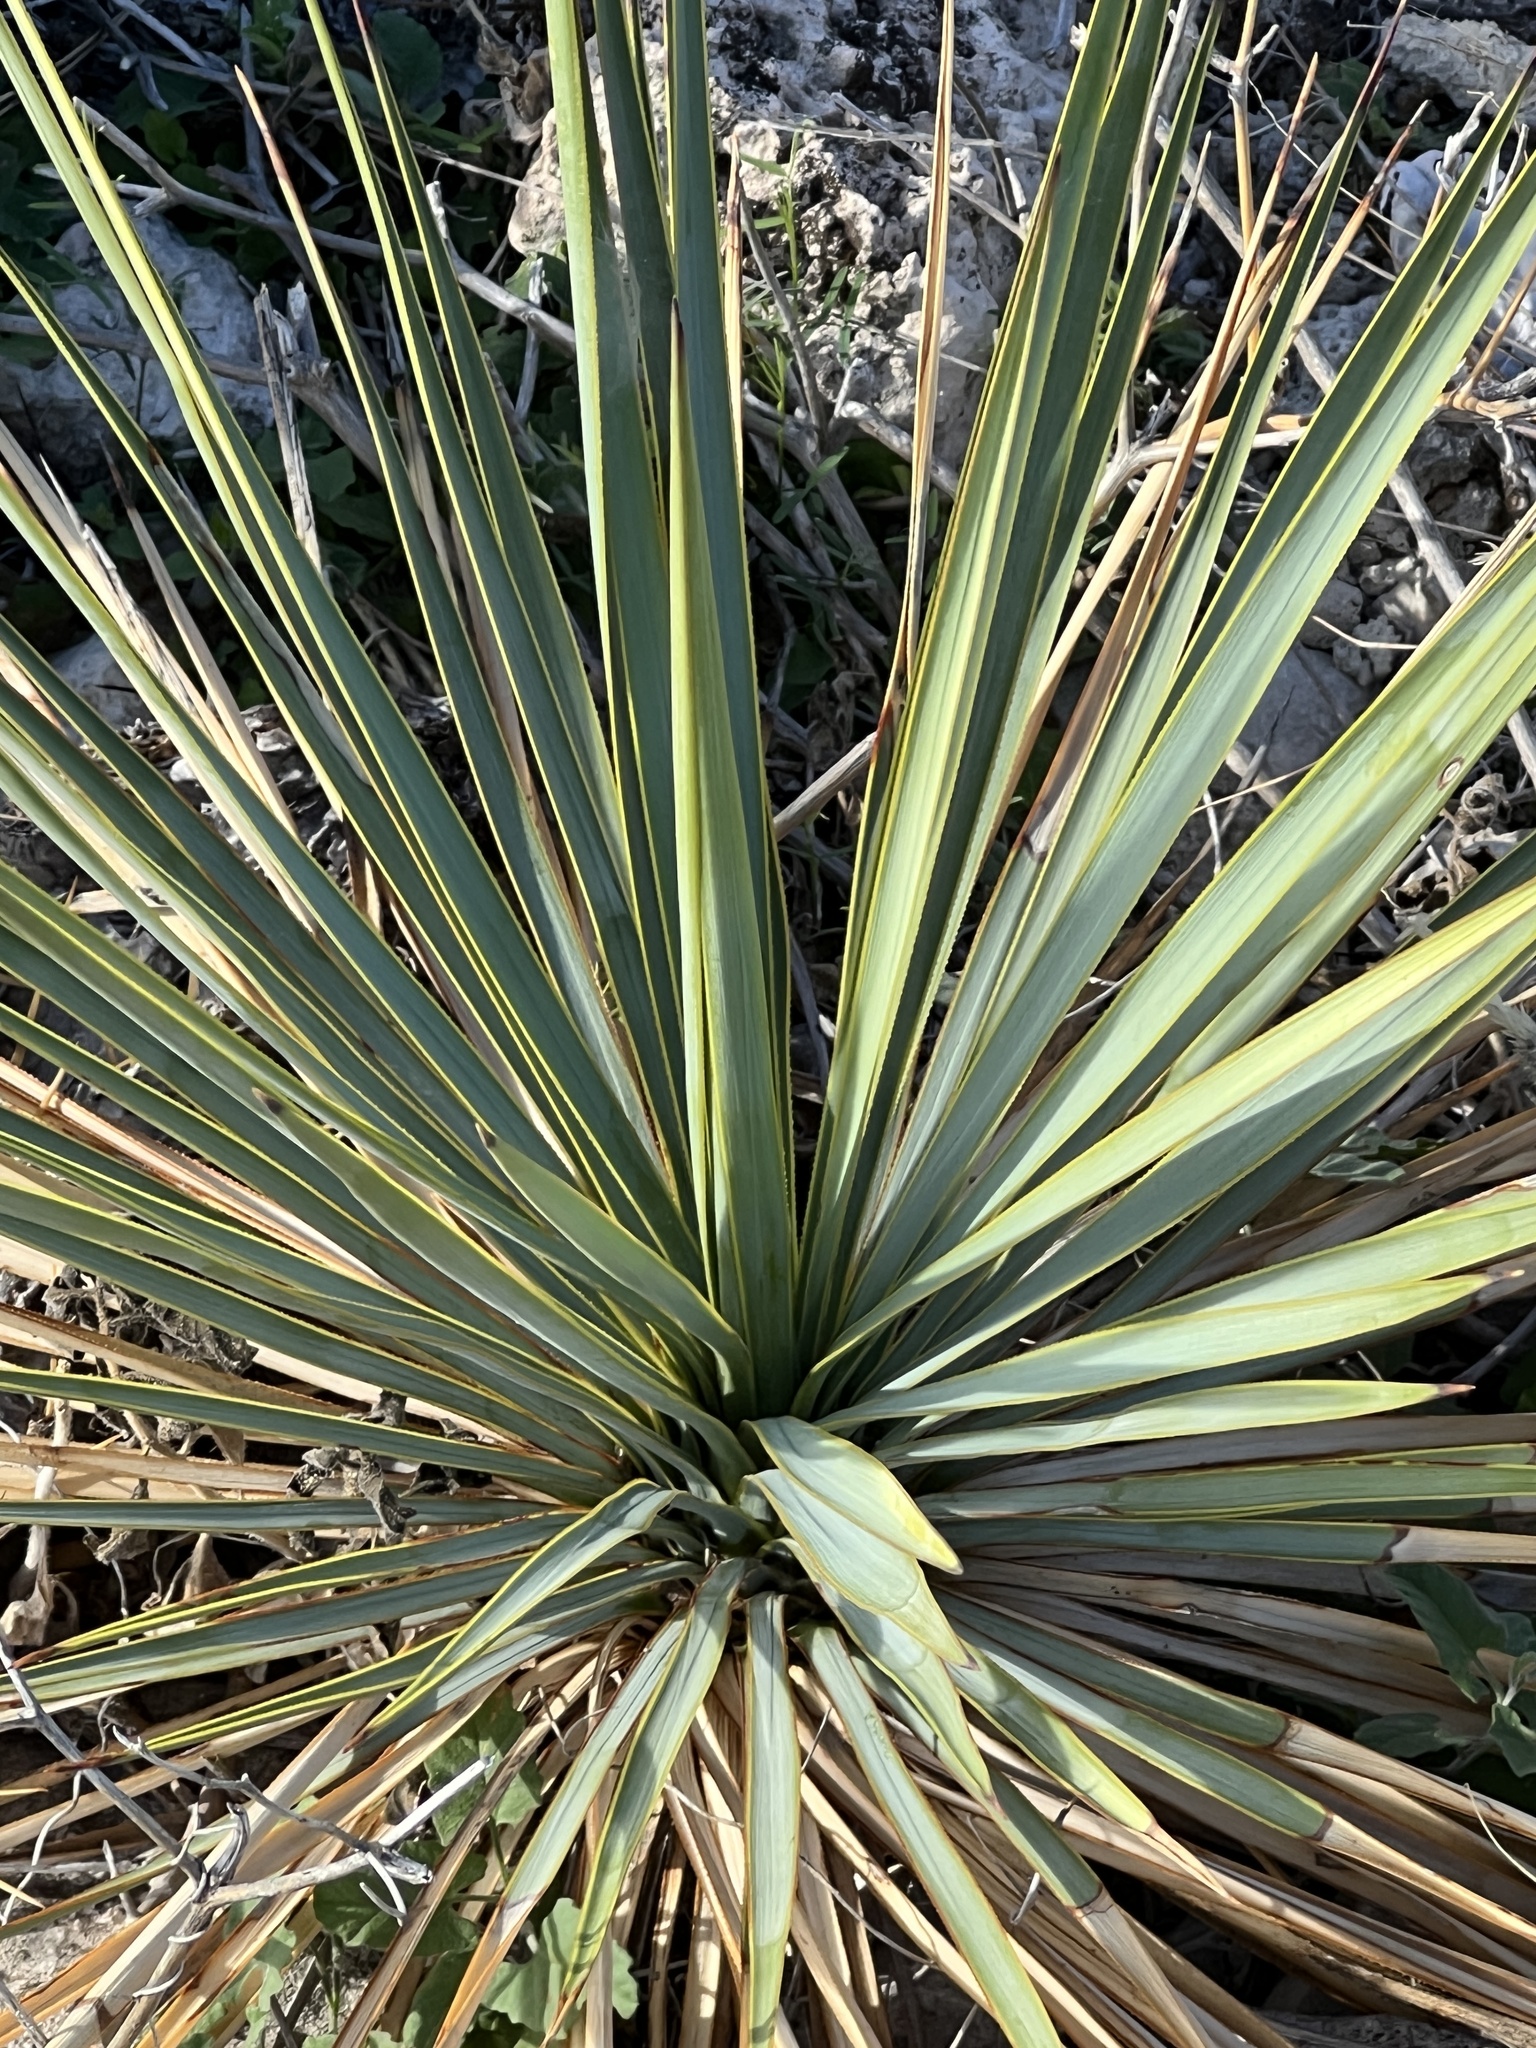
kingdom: Plantae
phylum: Tracheophyta
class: Liliopsida
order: Asparagales
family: Asparagaceae
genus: Yucca
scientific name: Yucca reverchonii
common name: San angelo yucca
